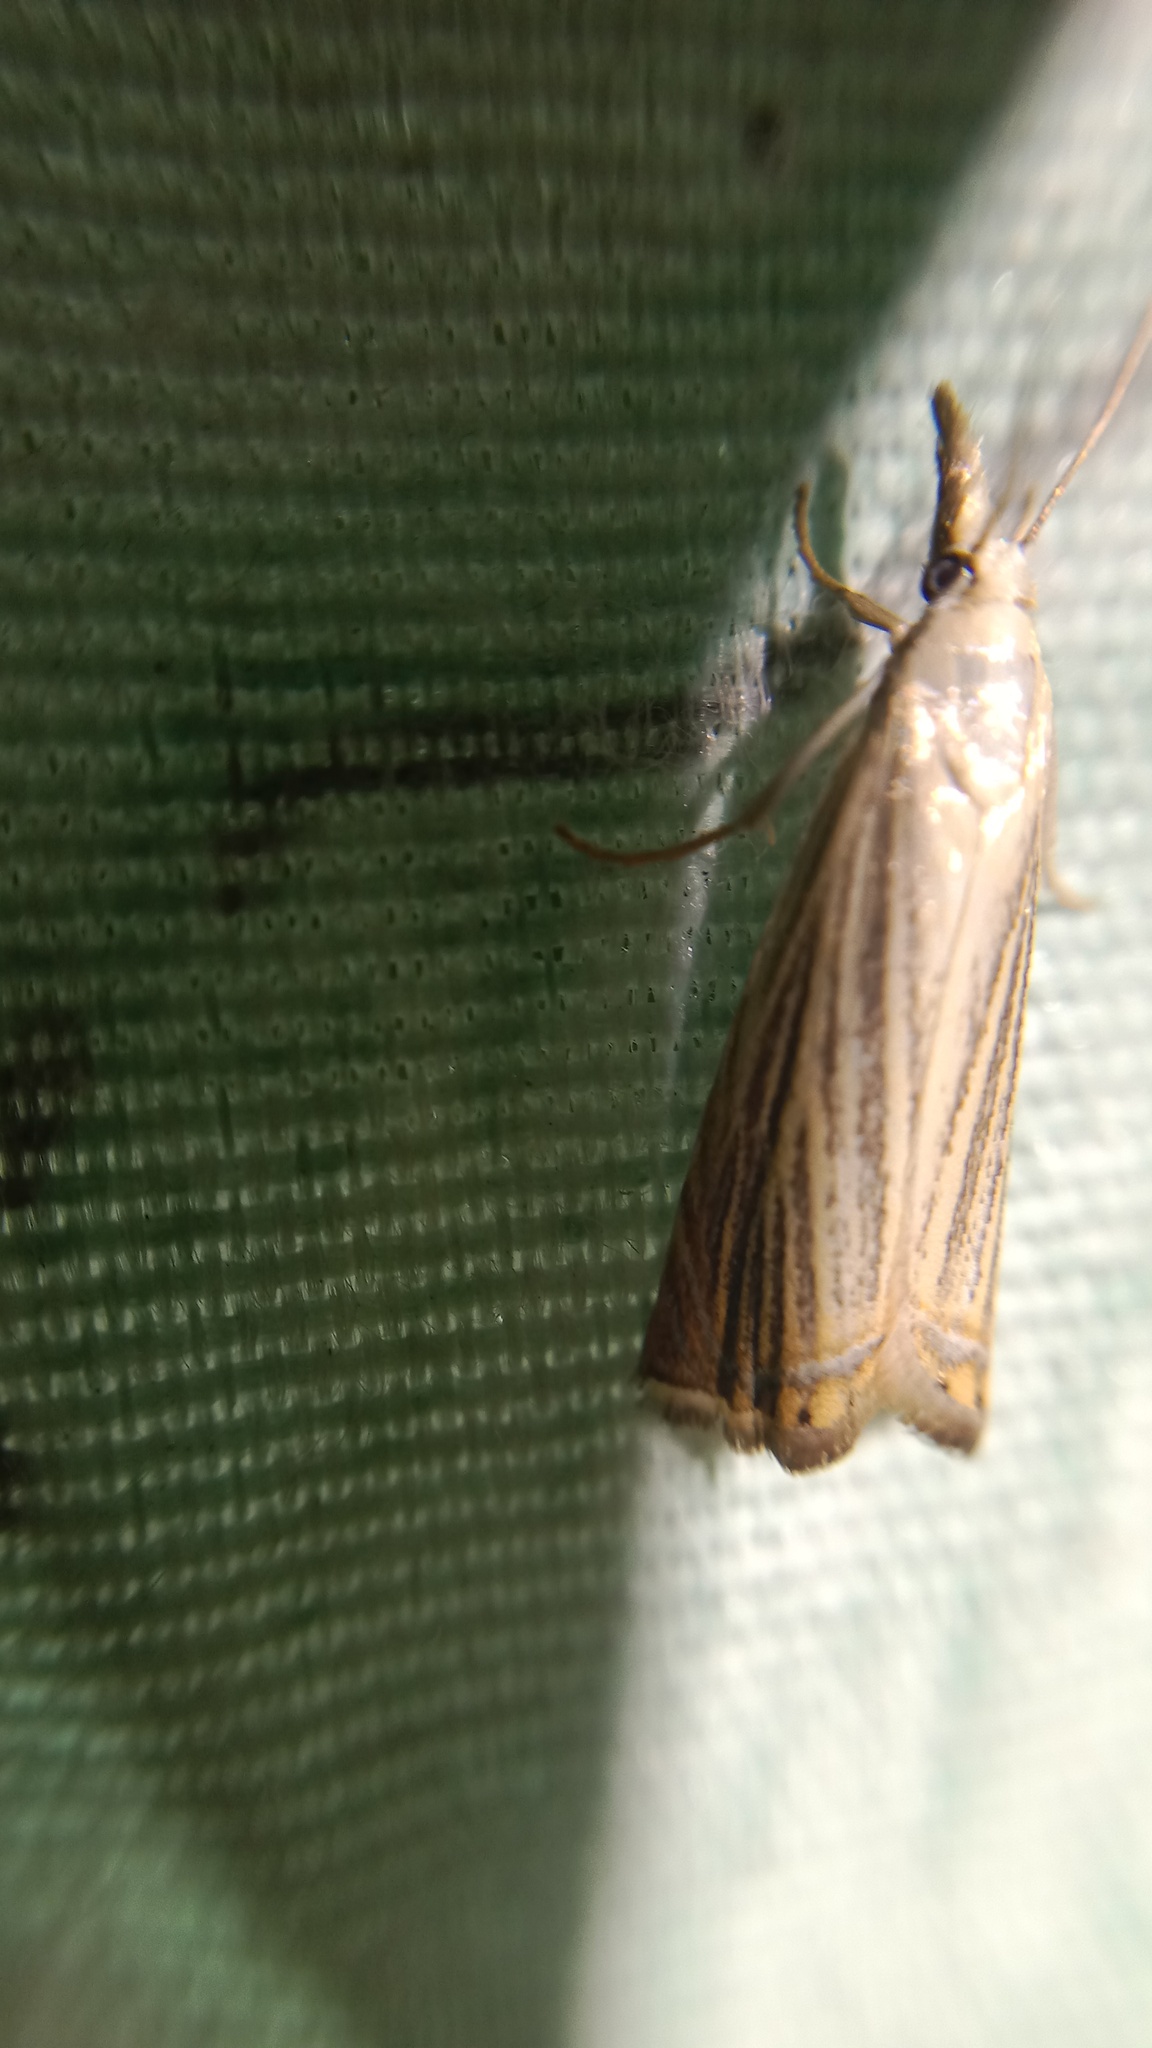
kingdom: Animalia
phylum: Arthropoda
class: Insecta
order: Lepidoptera
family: Crambidae
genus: Chrysoteuchia
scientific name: Chrysoteuchia culmella
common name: Garden grass-veneer
